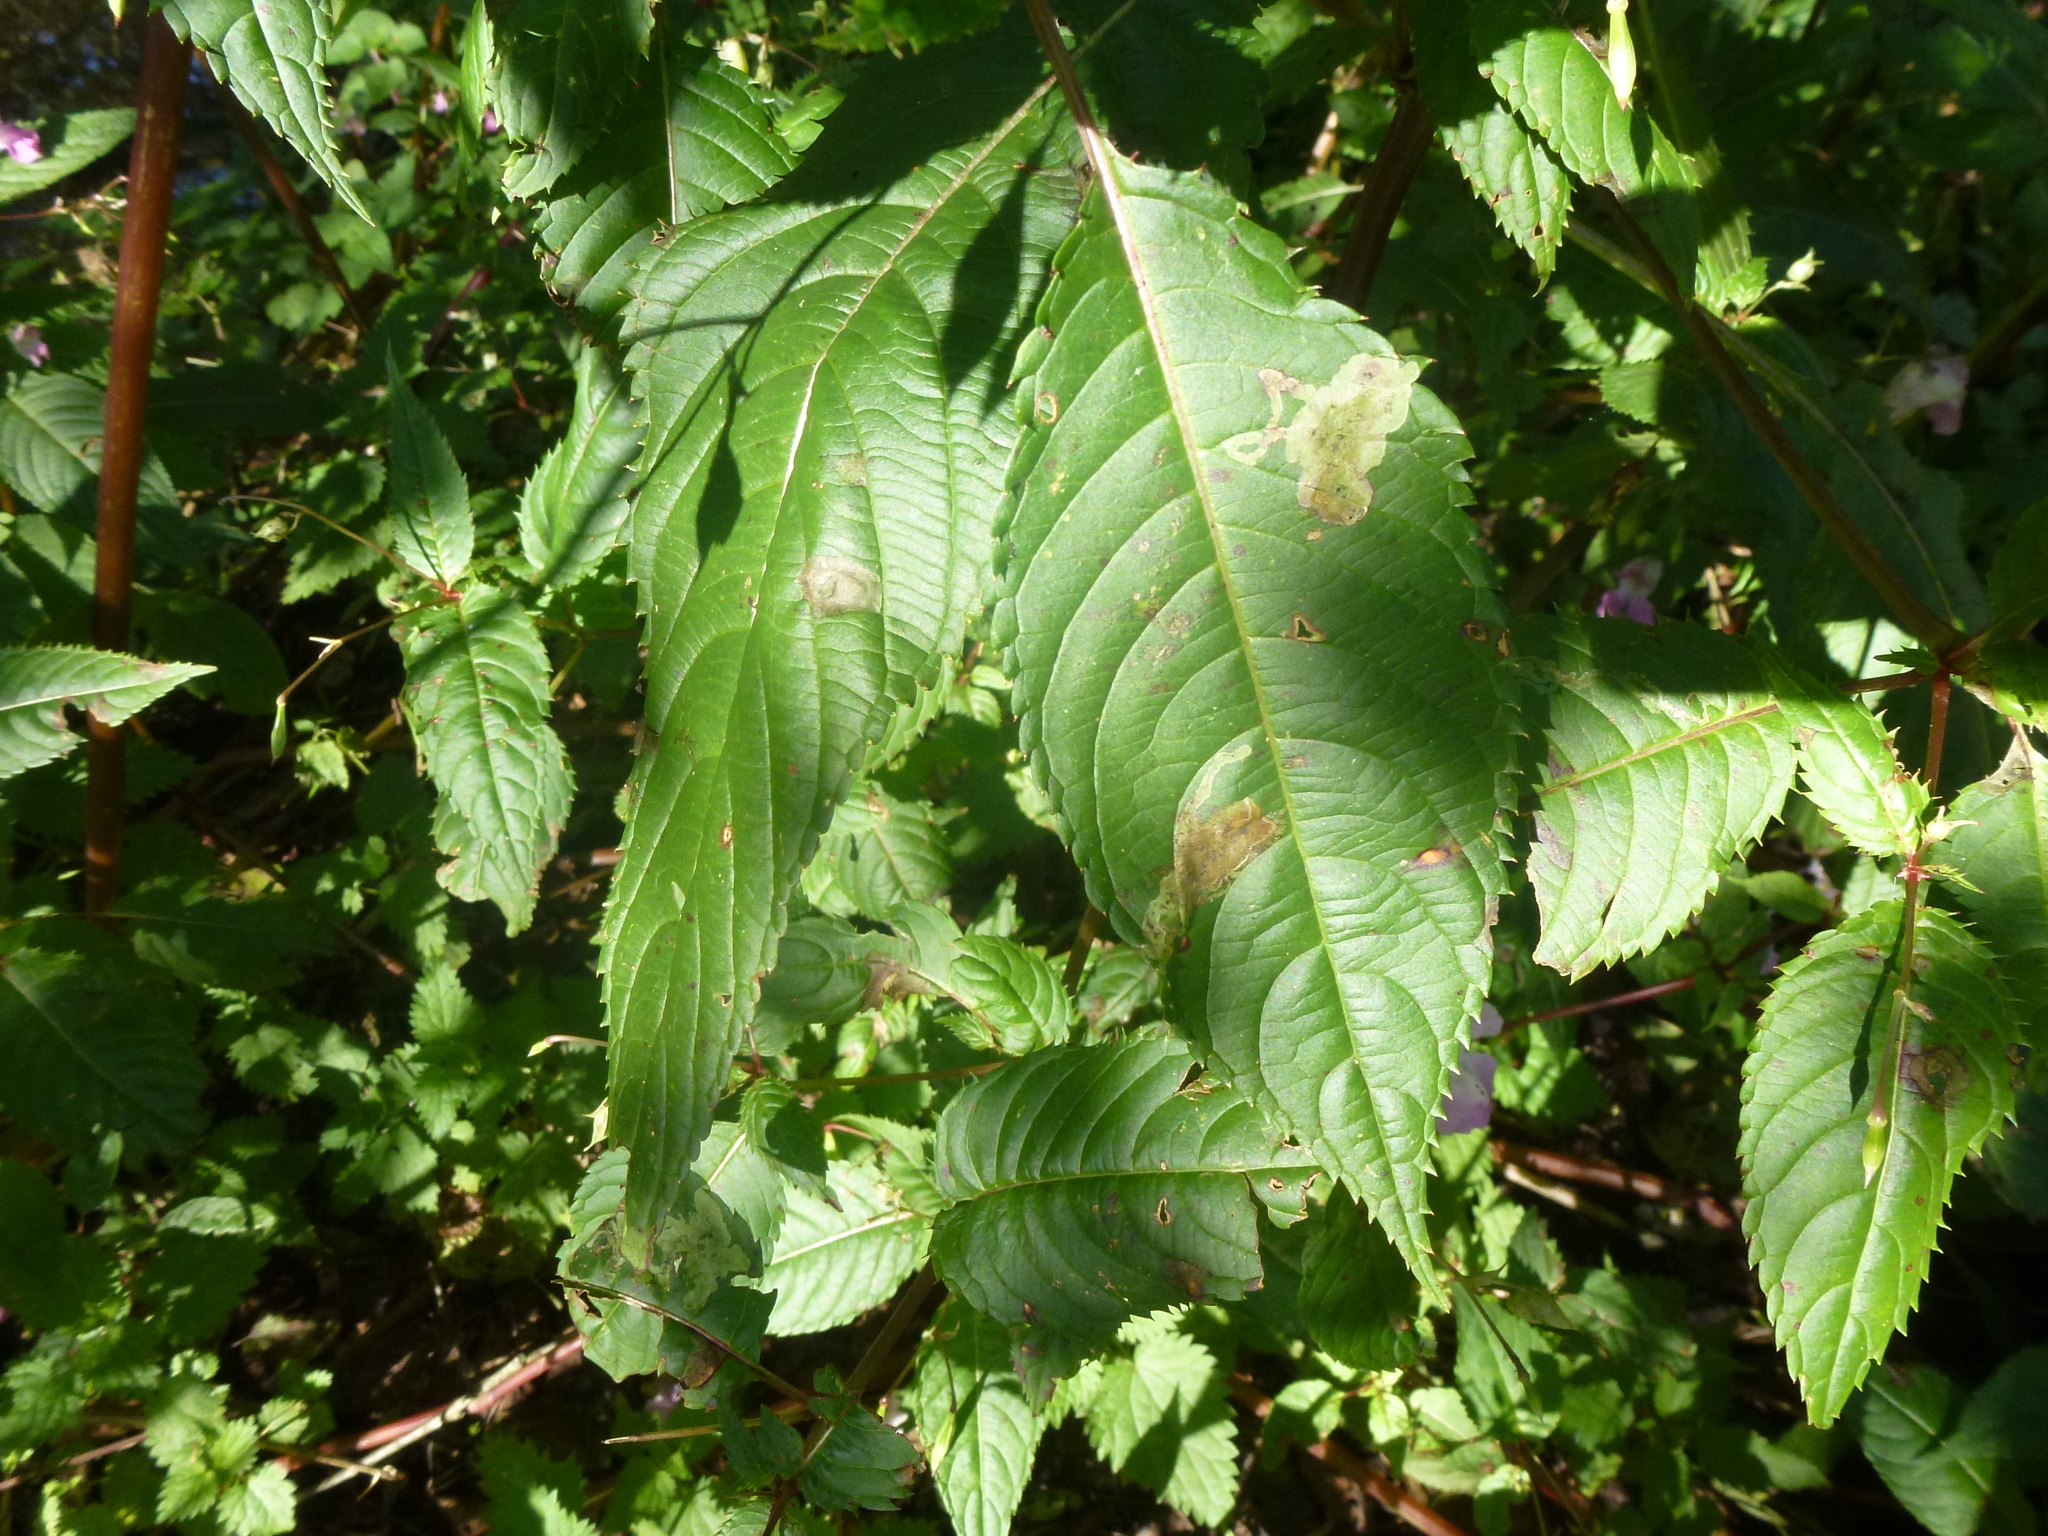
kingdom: Animalia
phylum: Arthropoda
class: Insecta
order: Diptera
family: Agromyzidae
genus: Phytoliriomyza
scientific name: Phytoliriomyza melampyga
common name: Jewelweed leaf-miner fly
